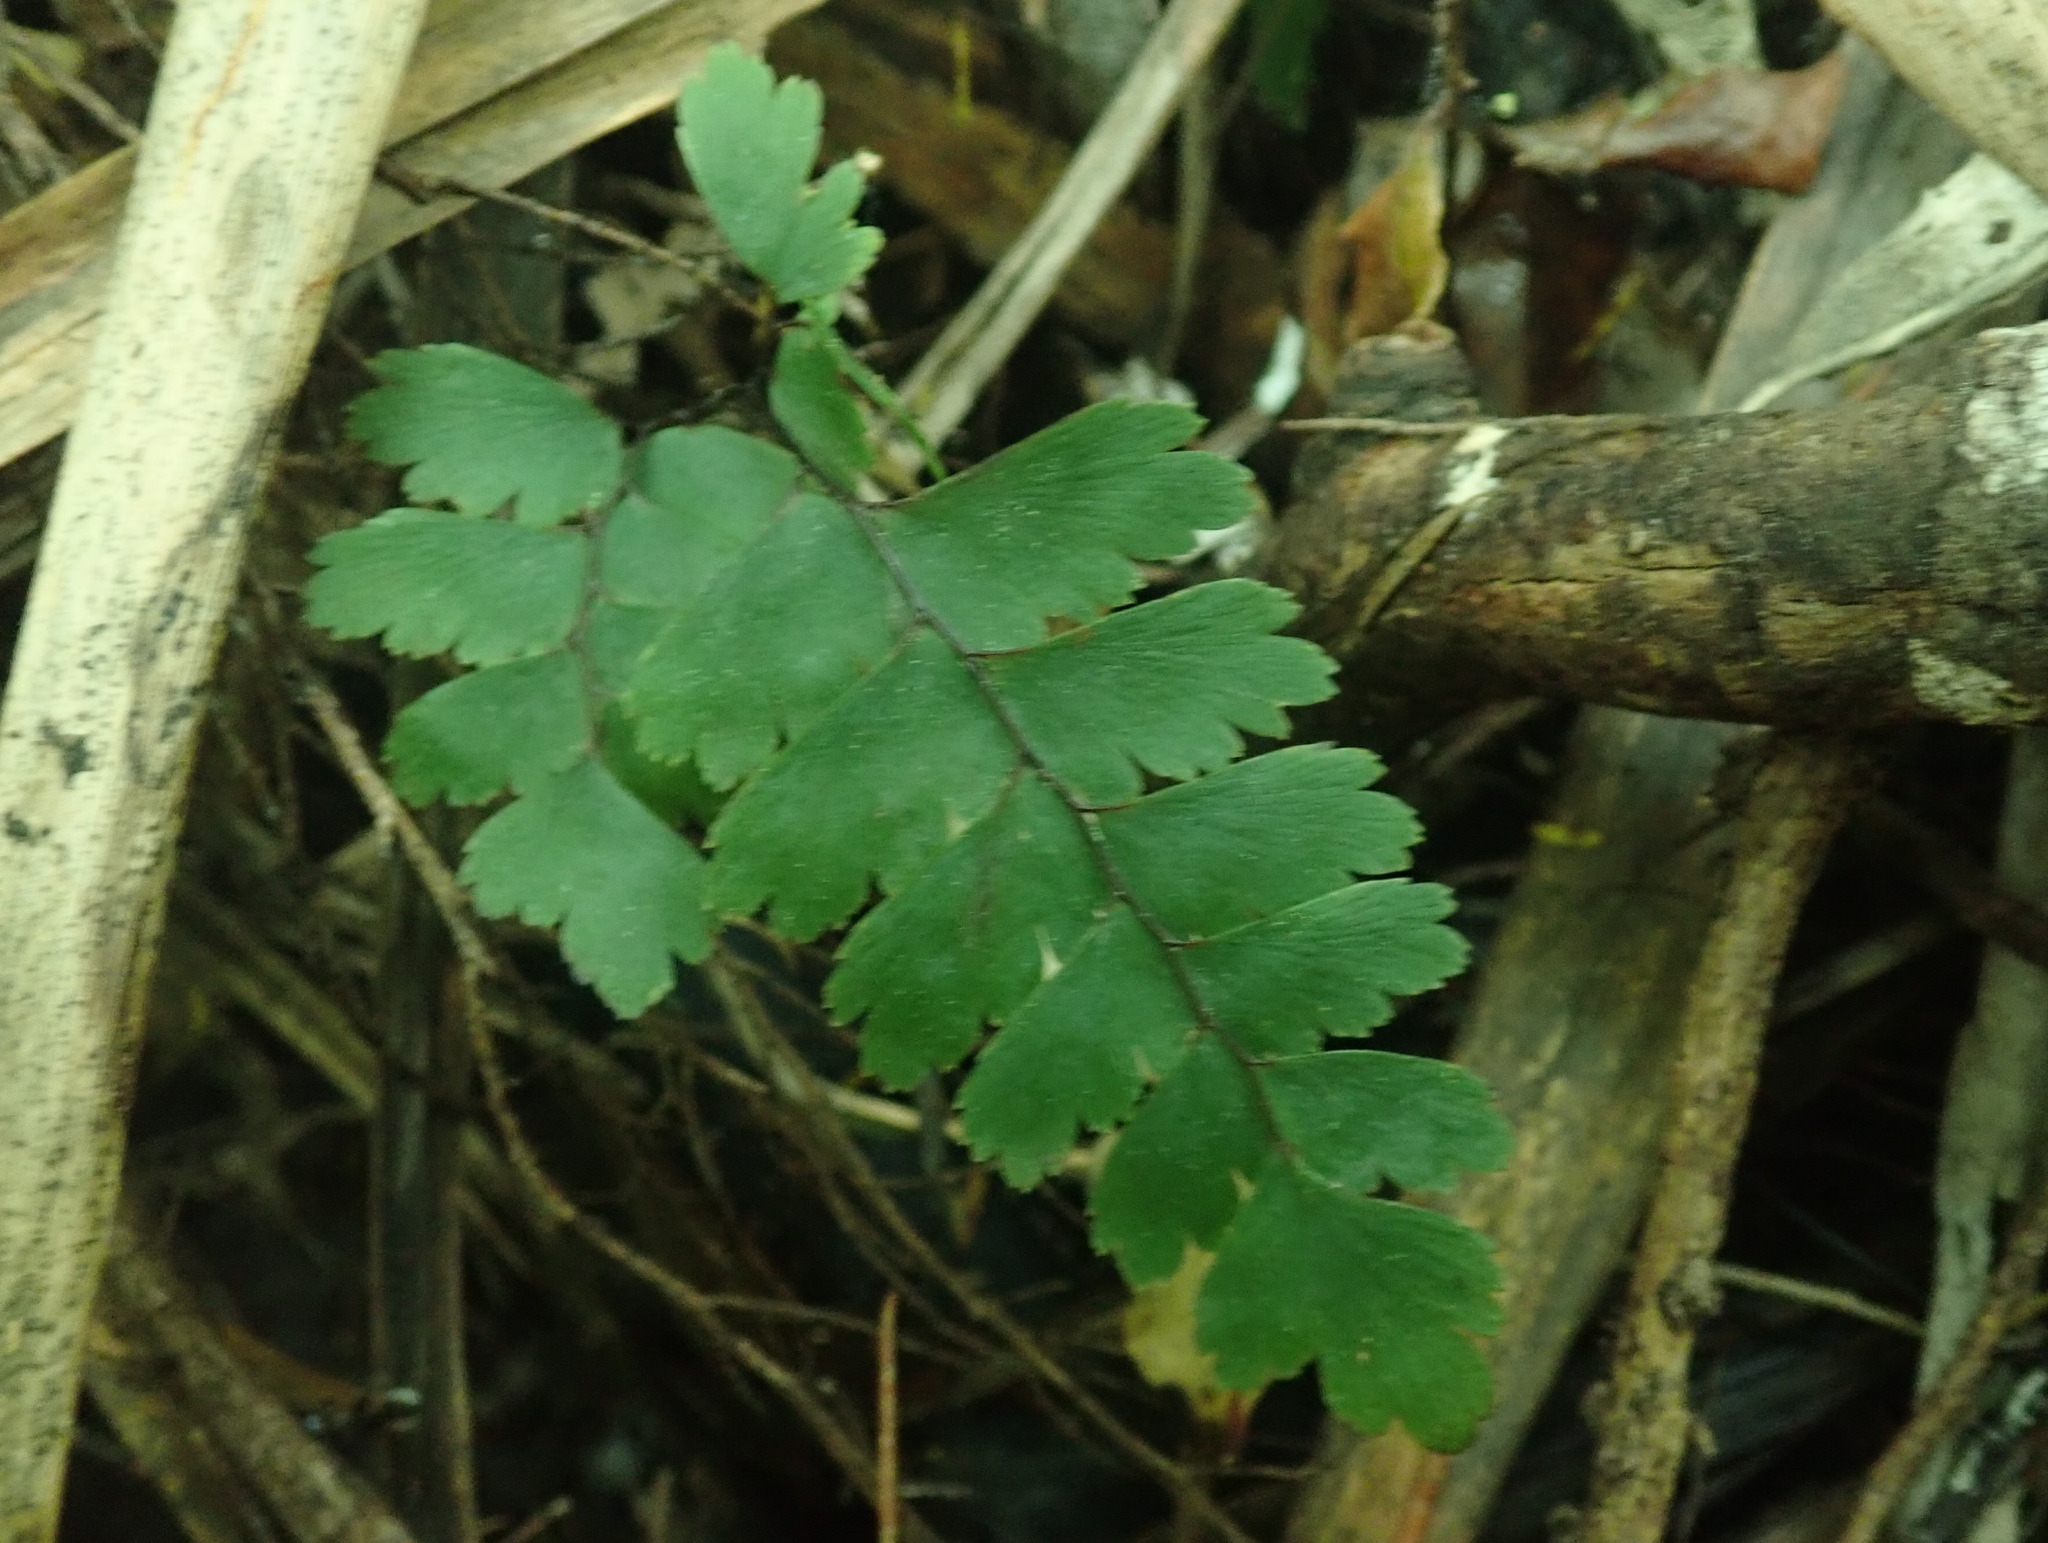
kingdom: Plantae
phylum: Tracheophyta
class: Polypodiopsida
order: Polypodiales
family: Pteridaceae
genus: Adiantum
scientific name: Adiantum cunninghamii
